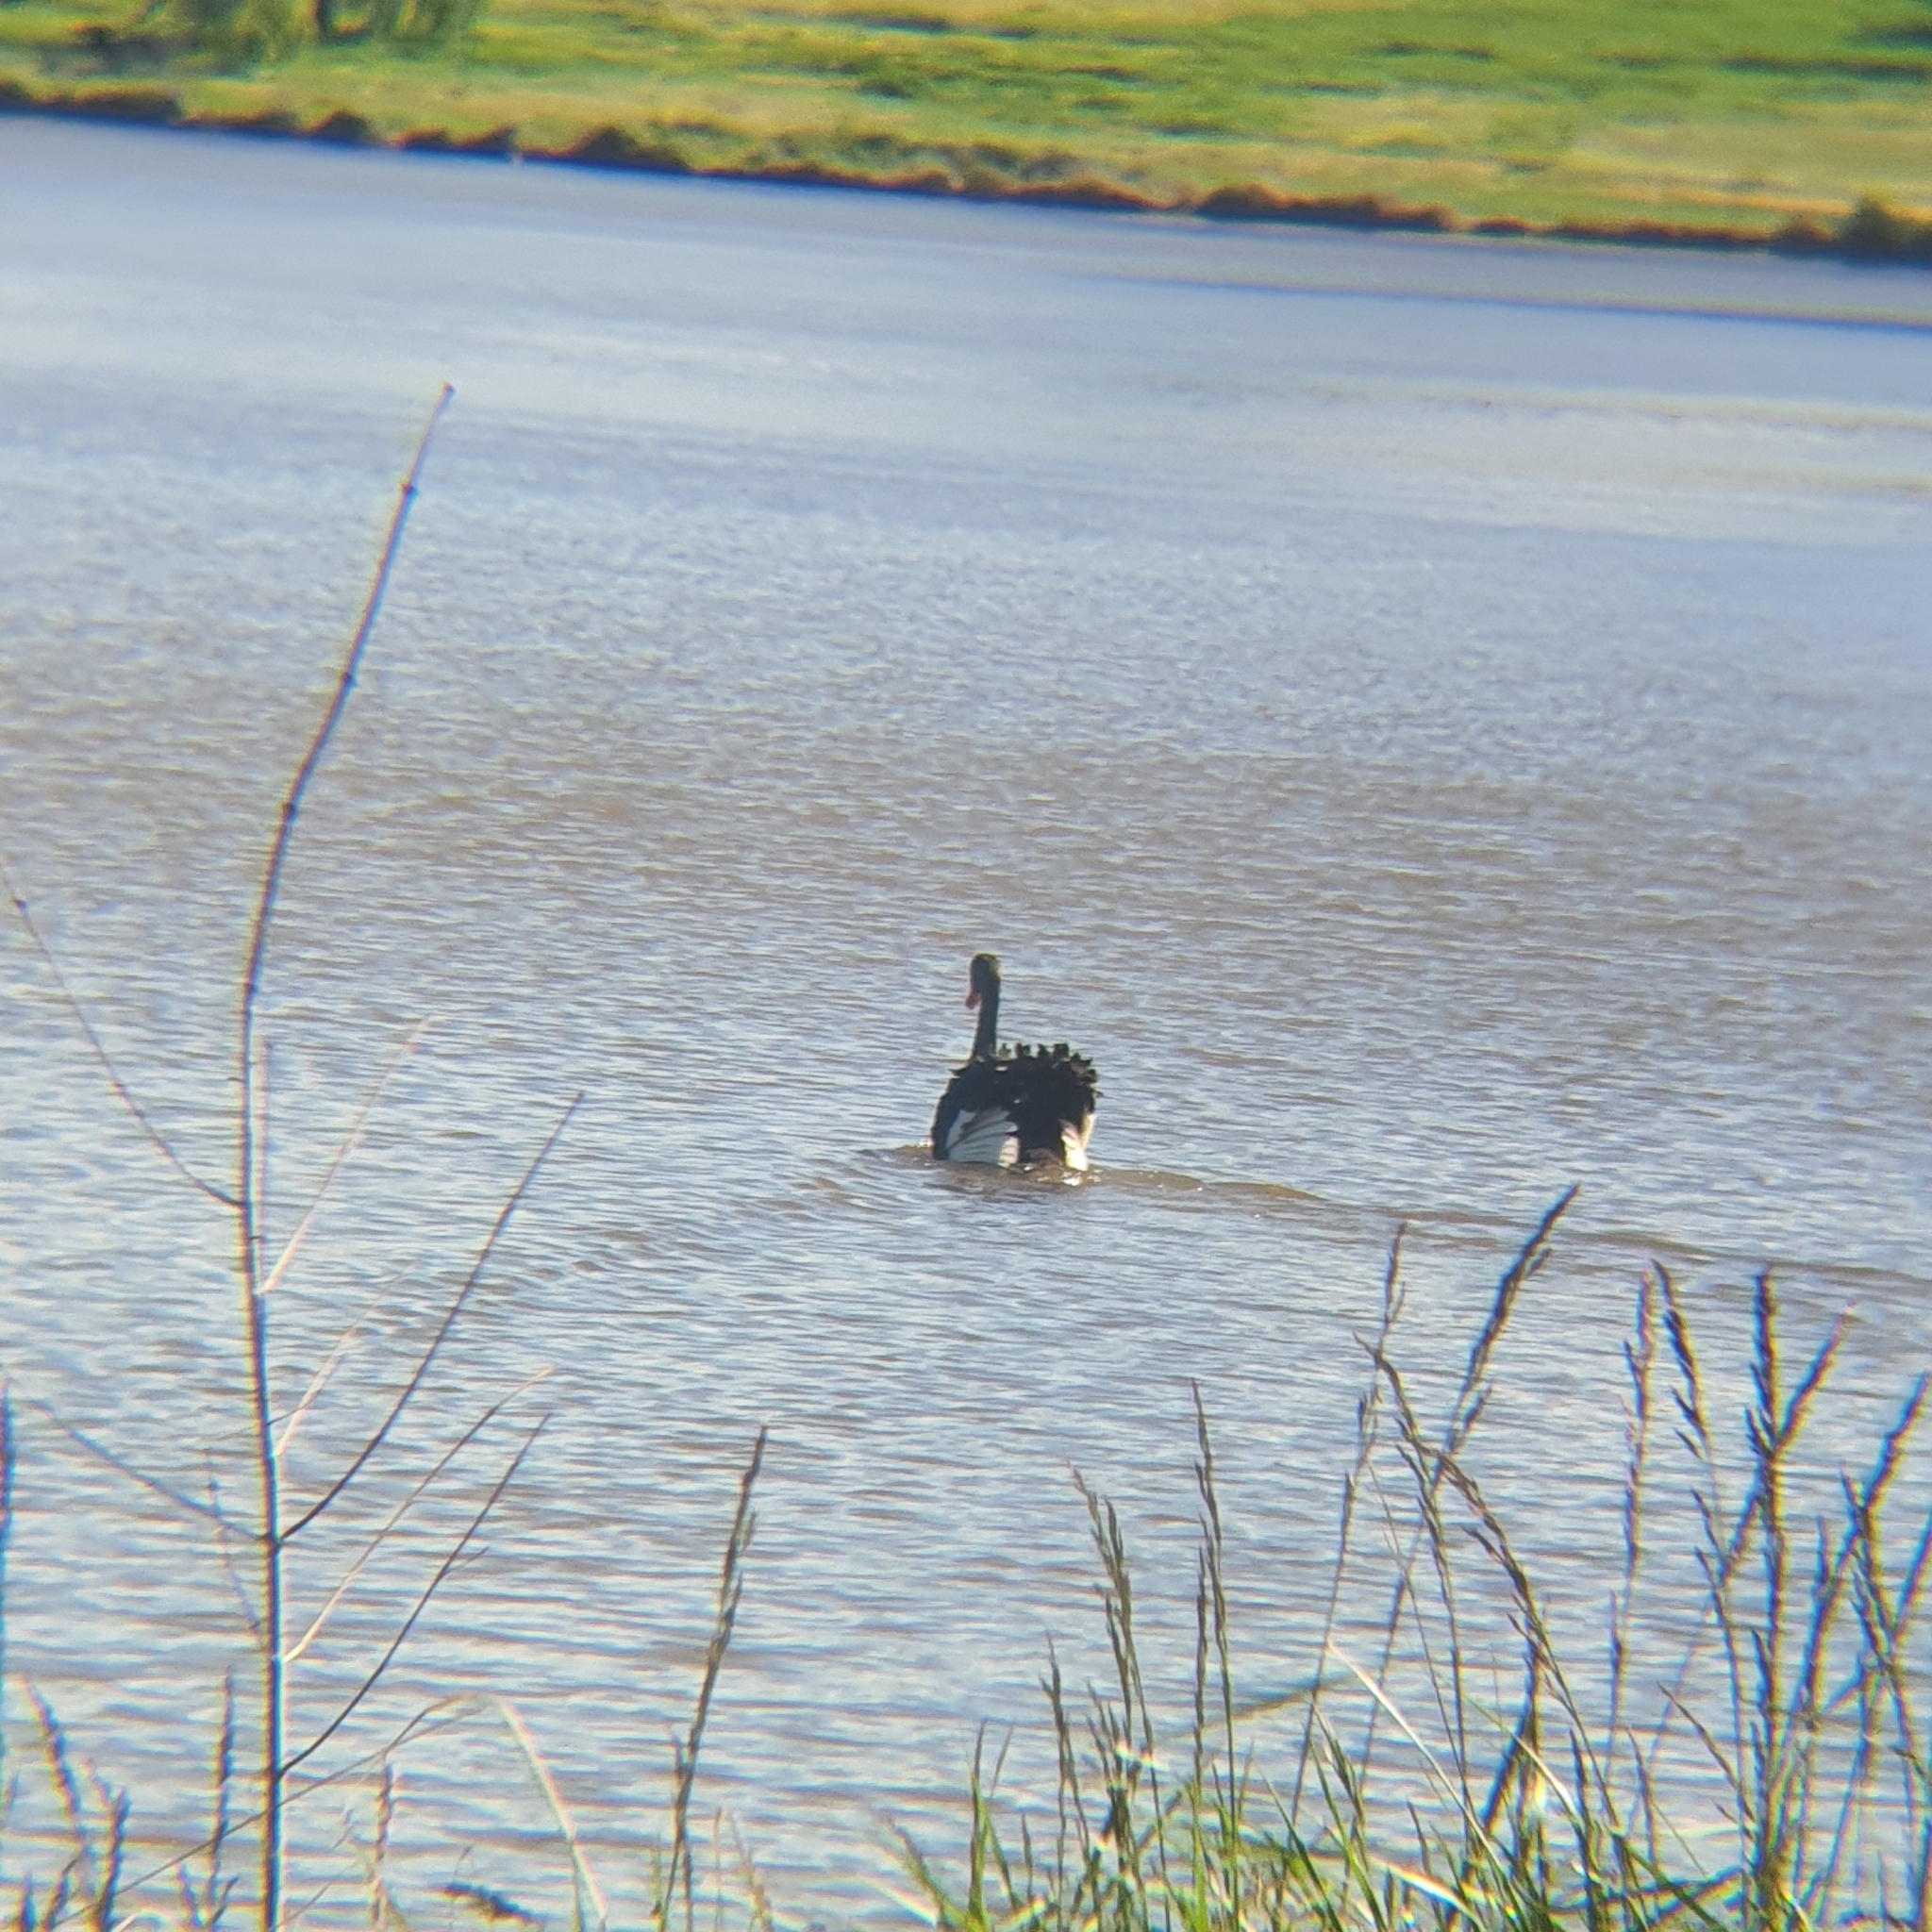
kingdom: Animalia
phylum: Chordata
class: Aves
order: Anseriformes
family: Anatidae
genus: Cygnus
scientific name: Cygnus atratus
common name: Black swan
